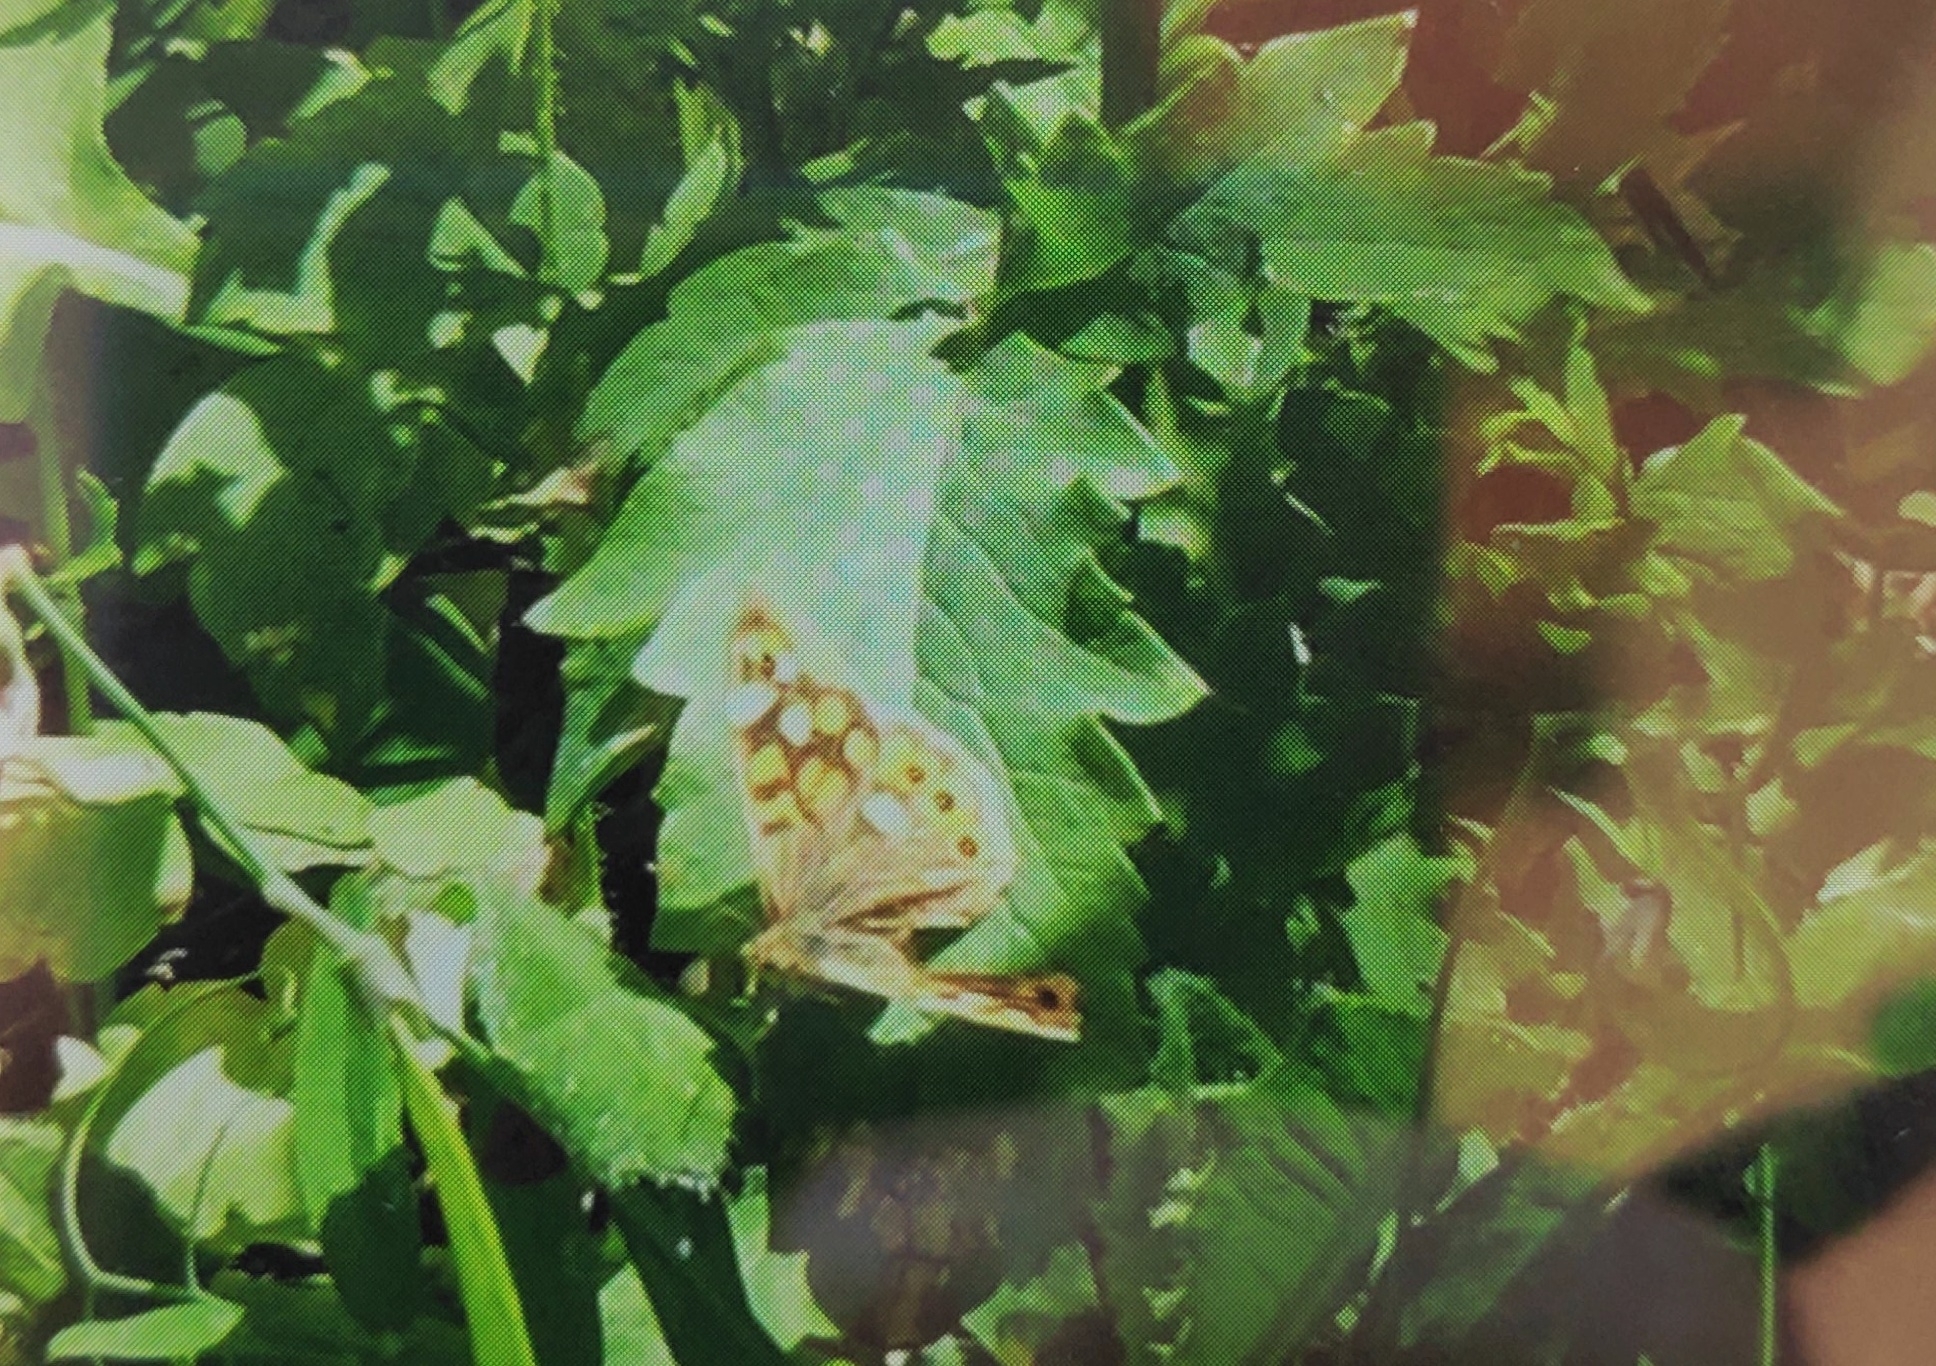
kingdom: Animalia
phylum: Arthropoda
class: Insecta
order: Lepidoptera
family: Nymphalidae
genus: Pararge
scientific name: Pararge aegeria
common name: Speckled wood
